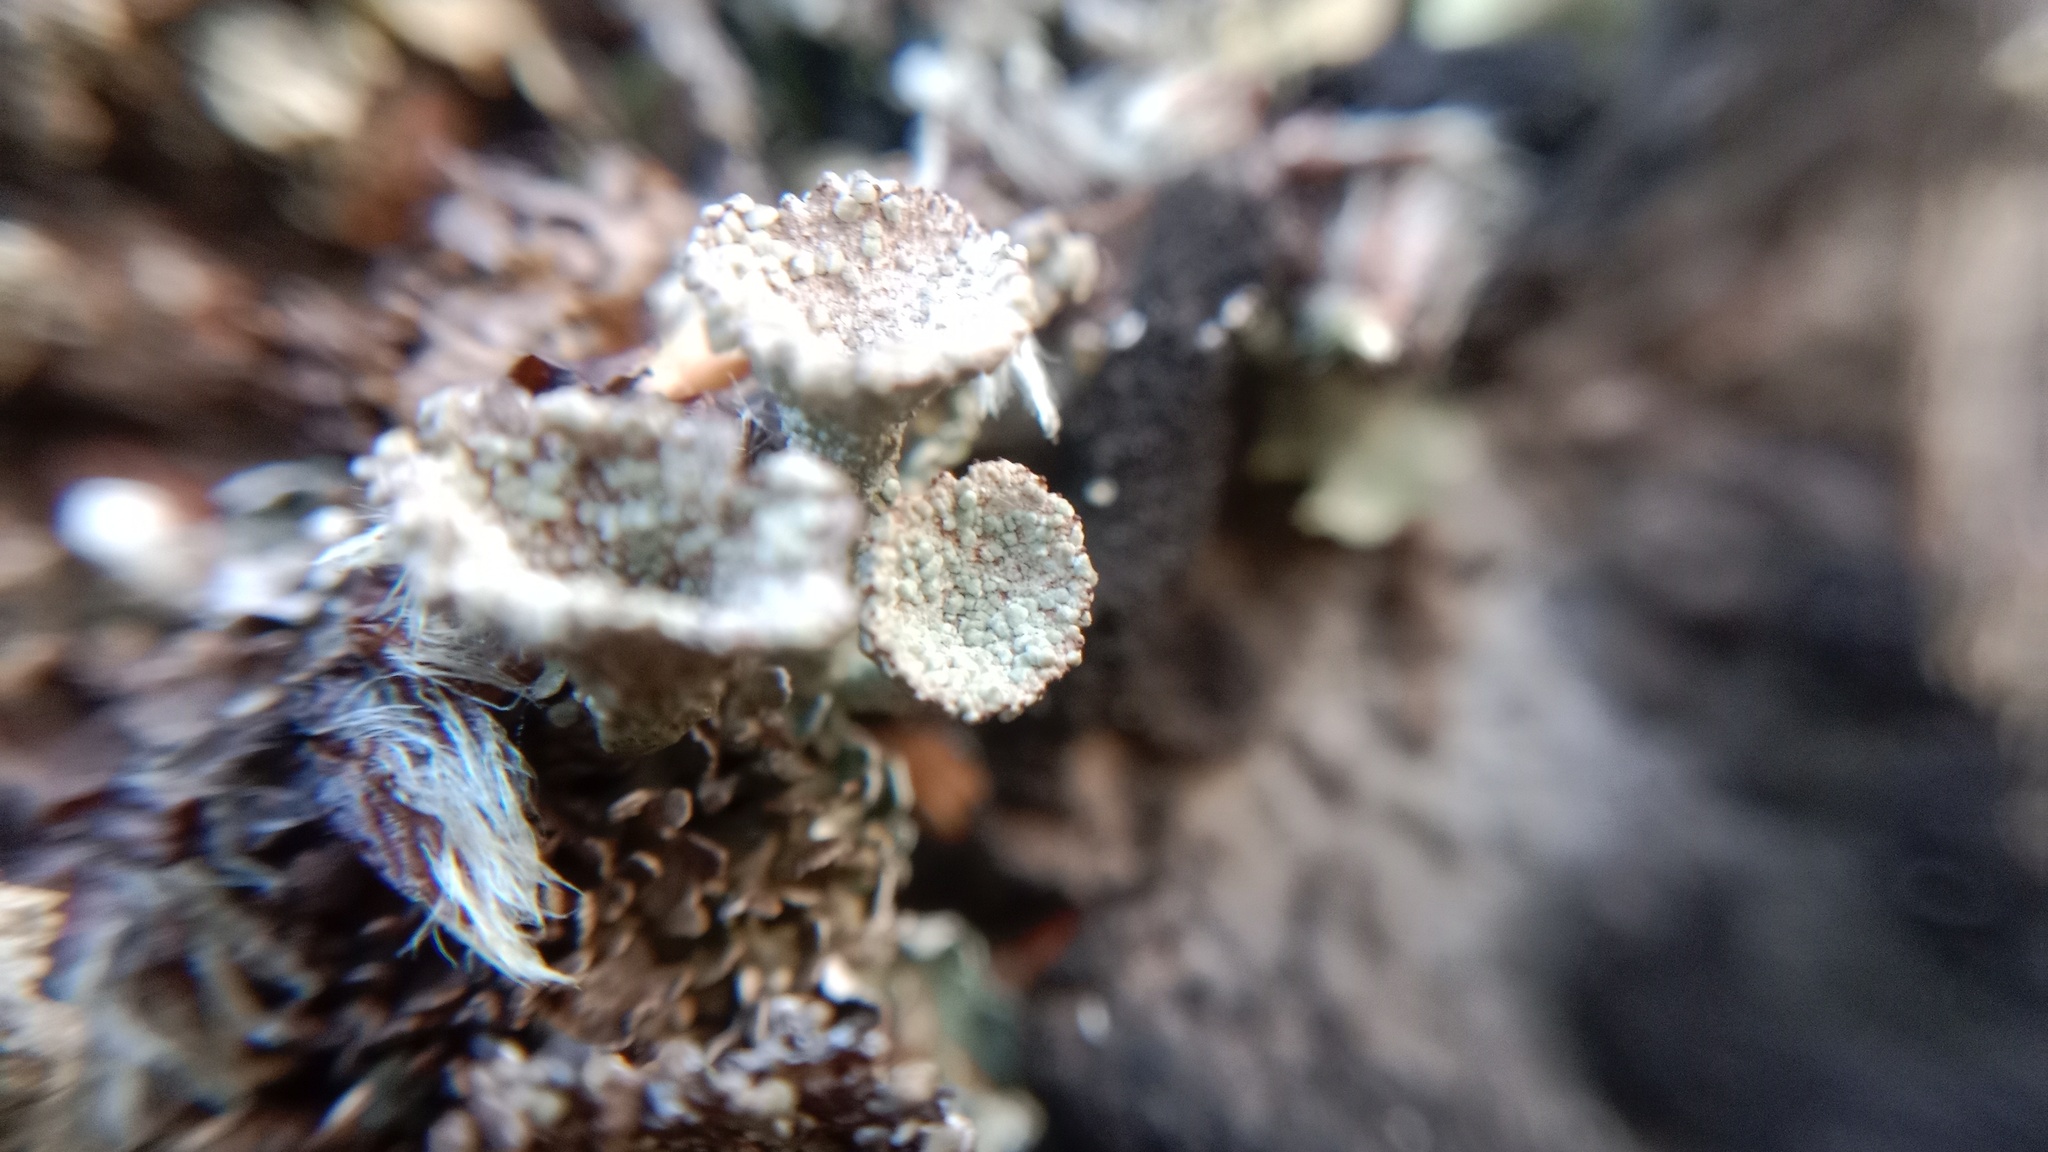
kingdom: Fungi
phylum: Ascomycota
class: Lecanoromycetes
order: Lecanorales
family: Cladoniaceae
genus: Cladonia
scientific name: Cladonia pyxidata
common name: Pebbled pixie cup
